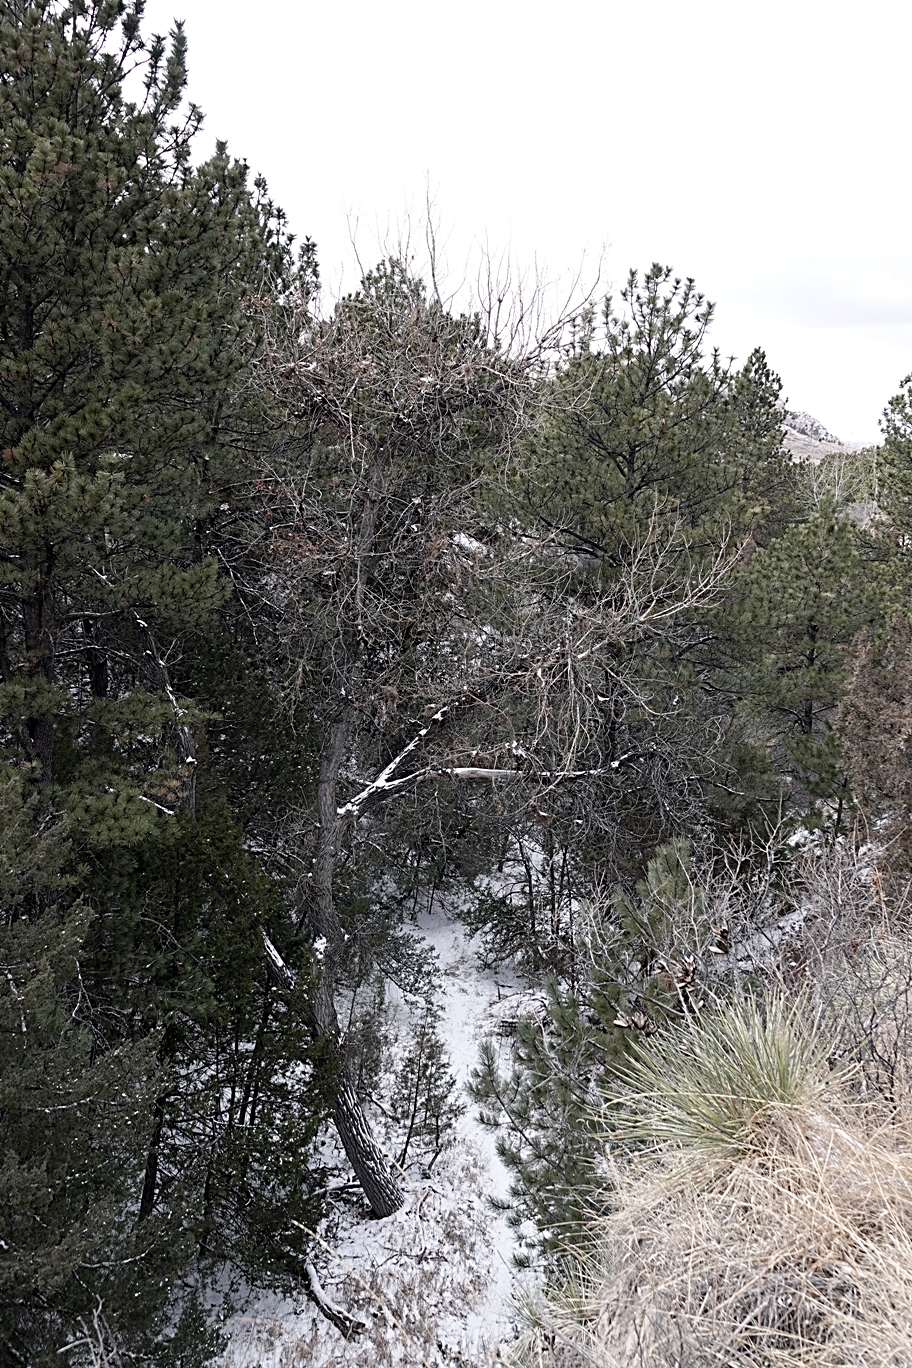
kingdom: Plantae
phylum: Tracheophyta
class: Magnoliopsida
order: Malpighiales
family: Salicaceae
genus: Populus
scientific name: Populus deltoides
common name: Eastern cottonwood
